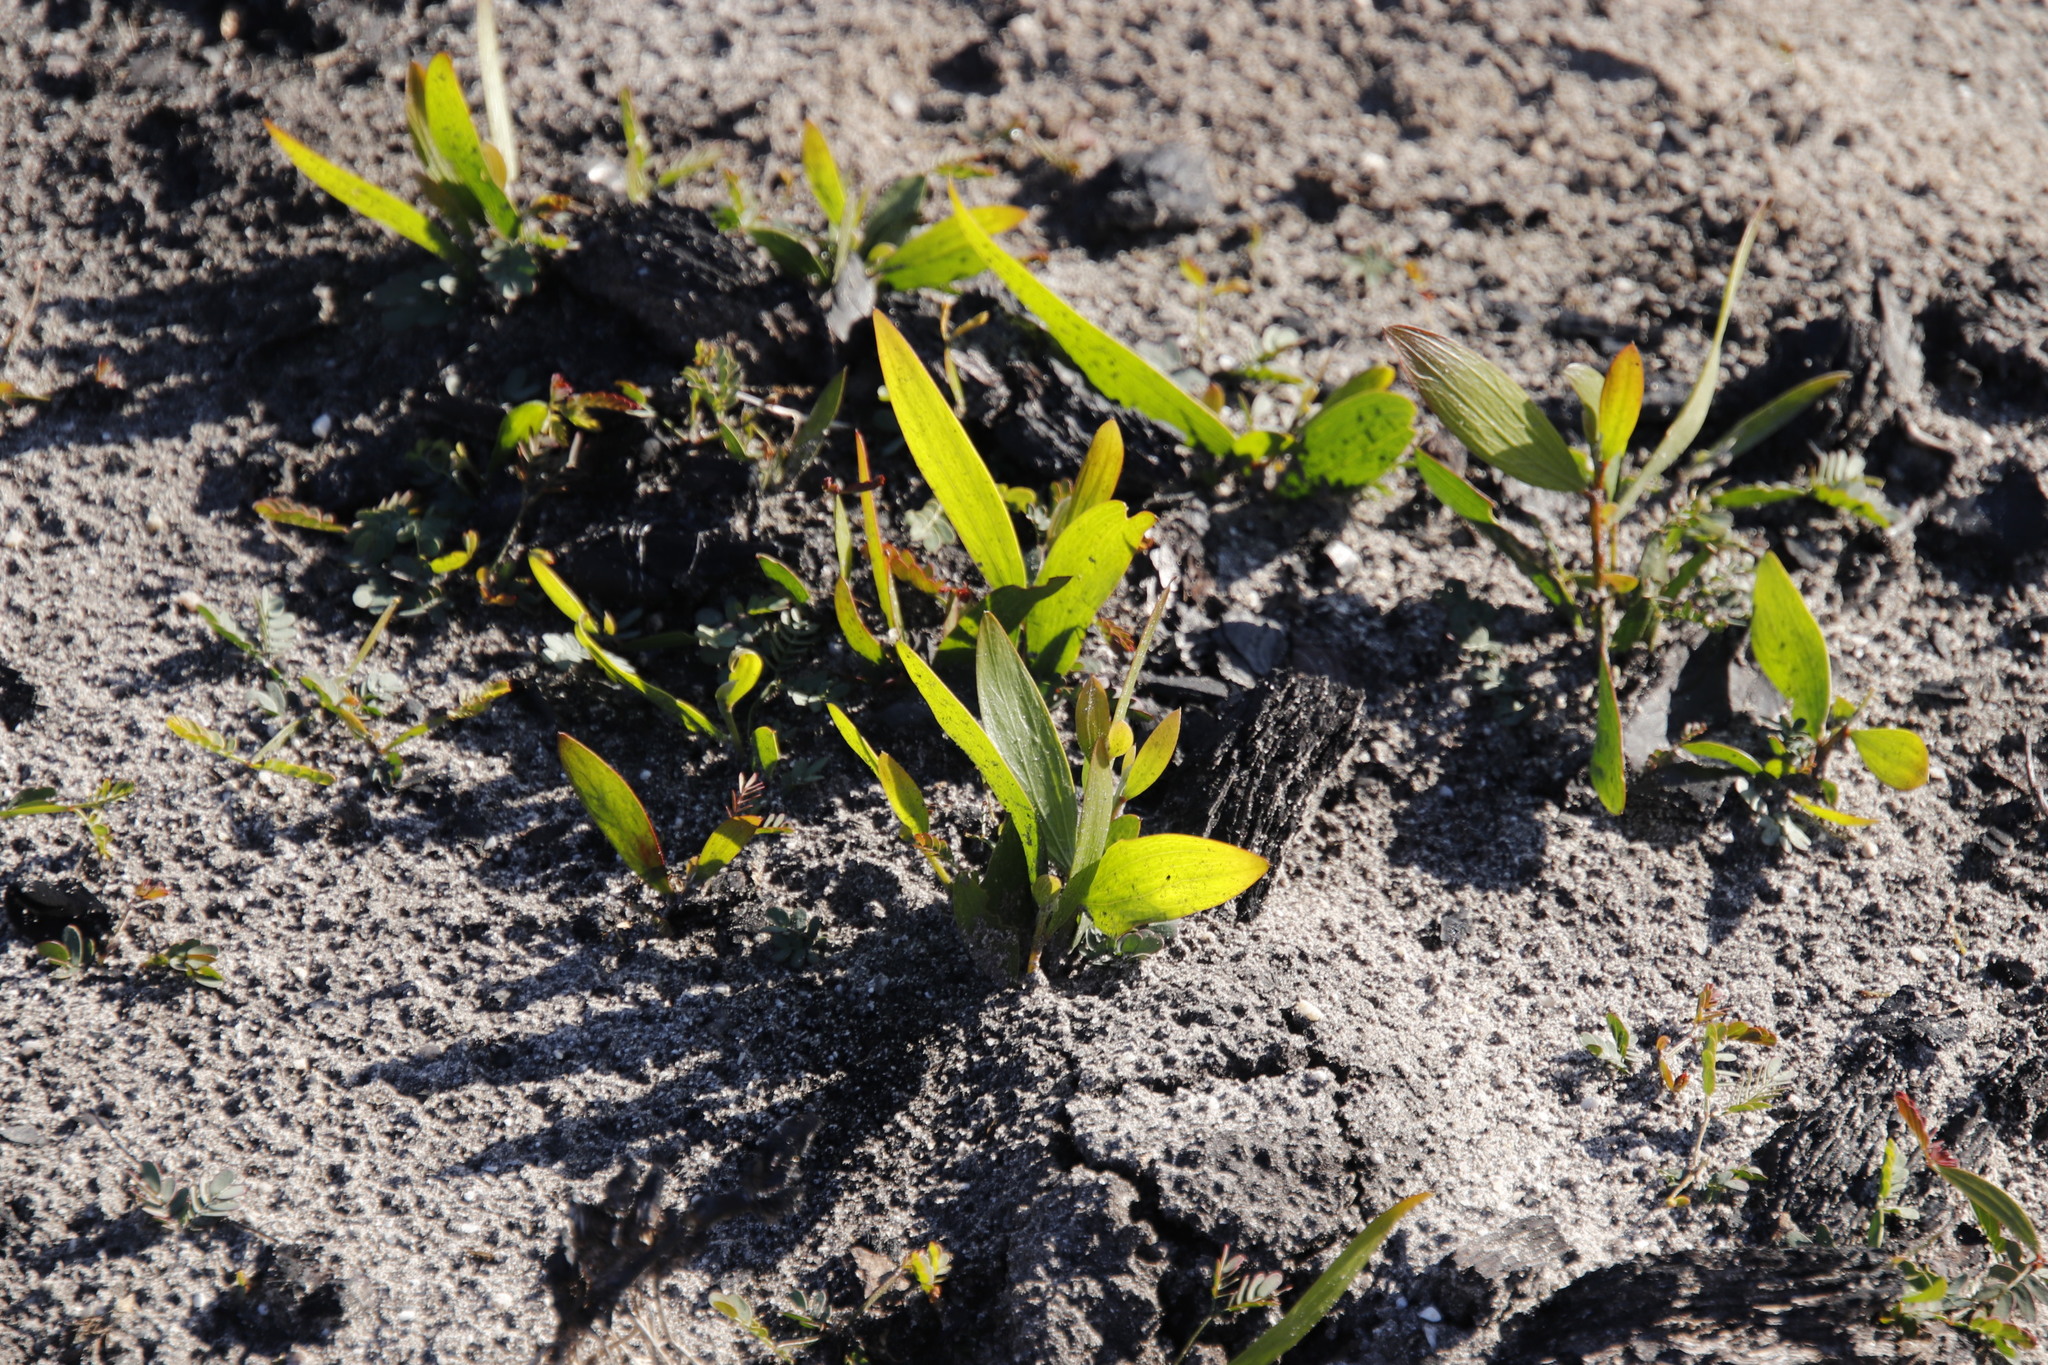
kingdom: Plantae
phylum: Tracheophyta
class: Magnoliopsida
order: Fabales
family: Fabaceae
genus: Acacia
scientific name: Acacia longifolia
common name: Sydney golden wattle
